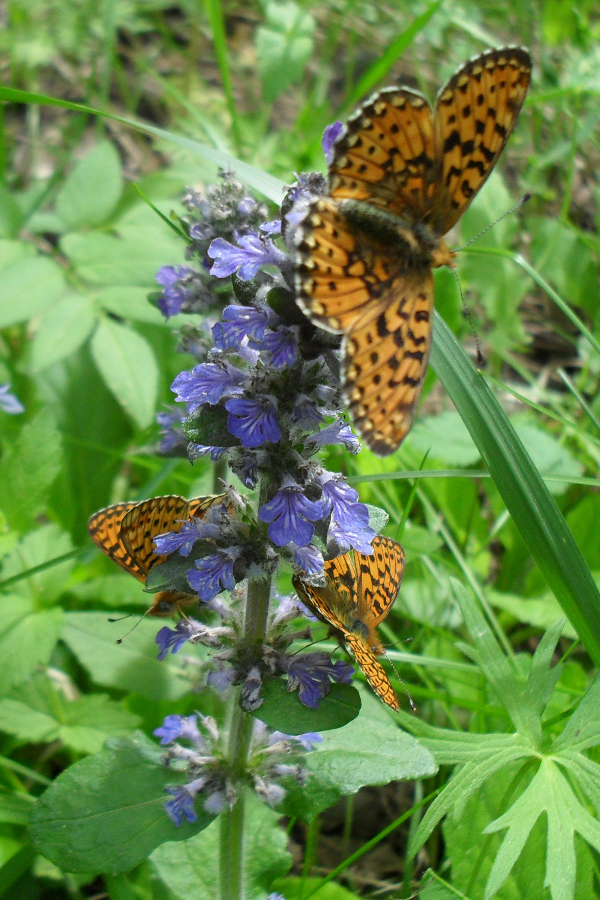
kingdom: Animalia
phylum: Arthropoda
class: Insecta
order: Lepidoptera
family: Nymphalidae
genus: Clossiana
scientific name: Clossiana euphrosyne
